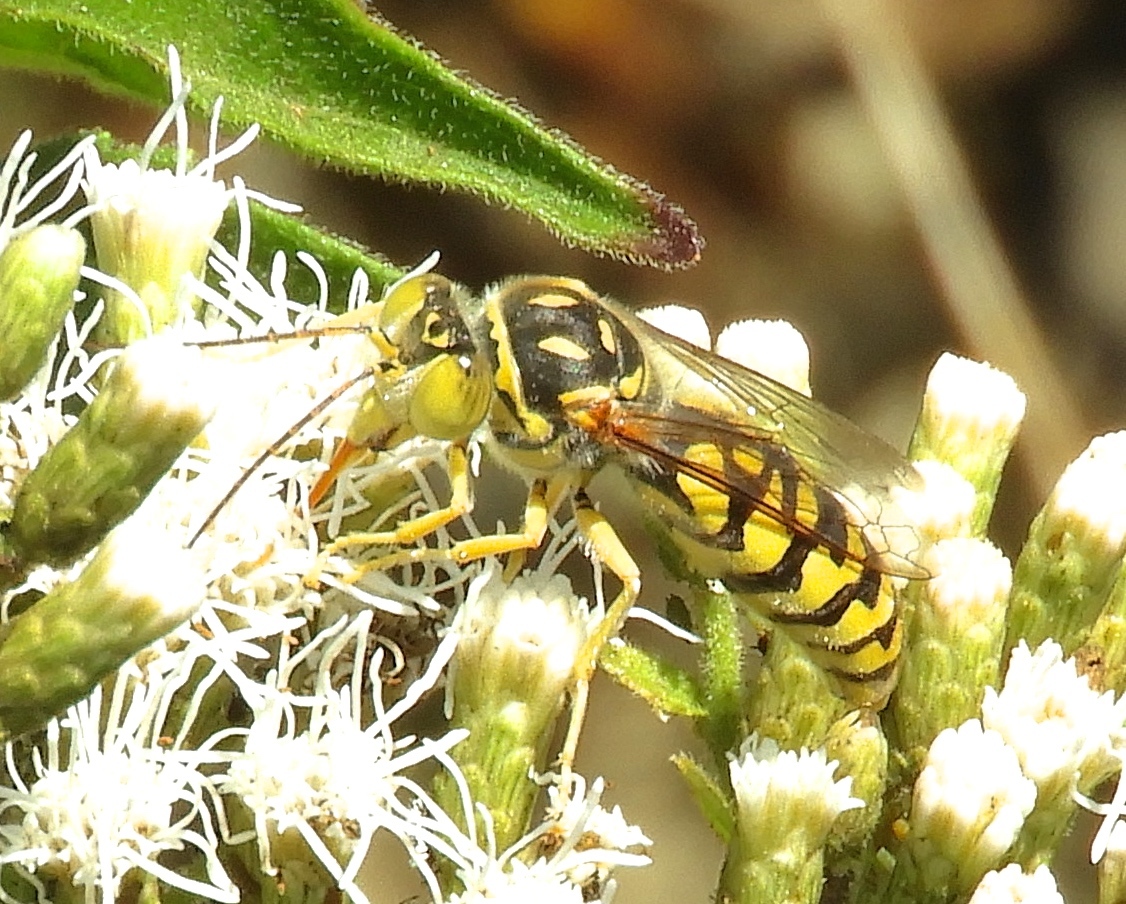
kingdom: Animalia
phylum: Arthropoda
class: Insecta
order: Hymenoptera
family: Crabronidae
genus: Steniolia
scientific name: Steniolia
